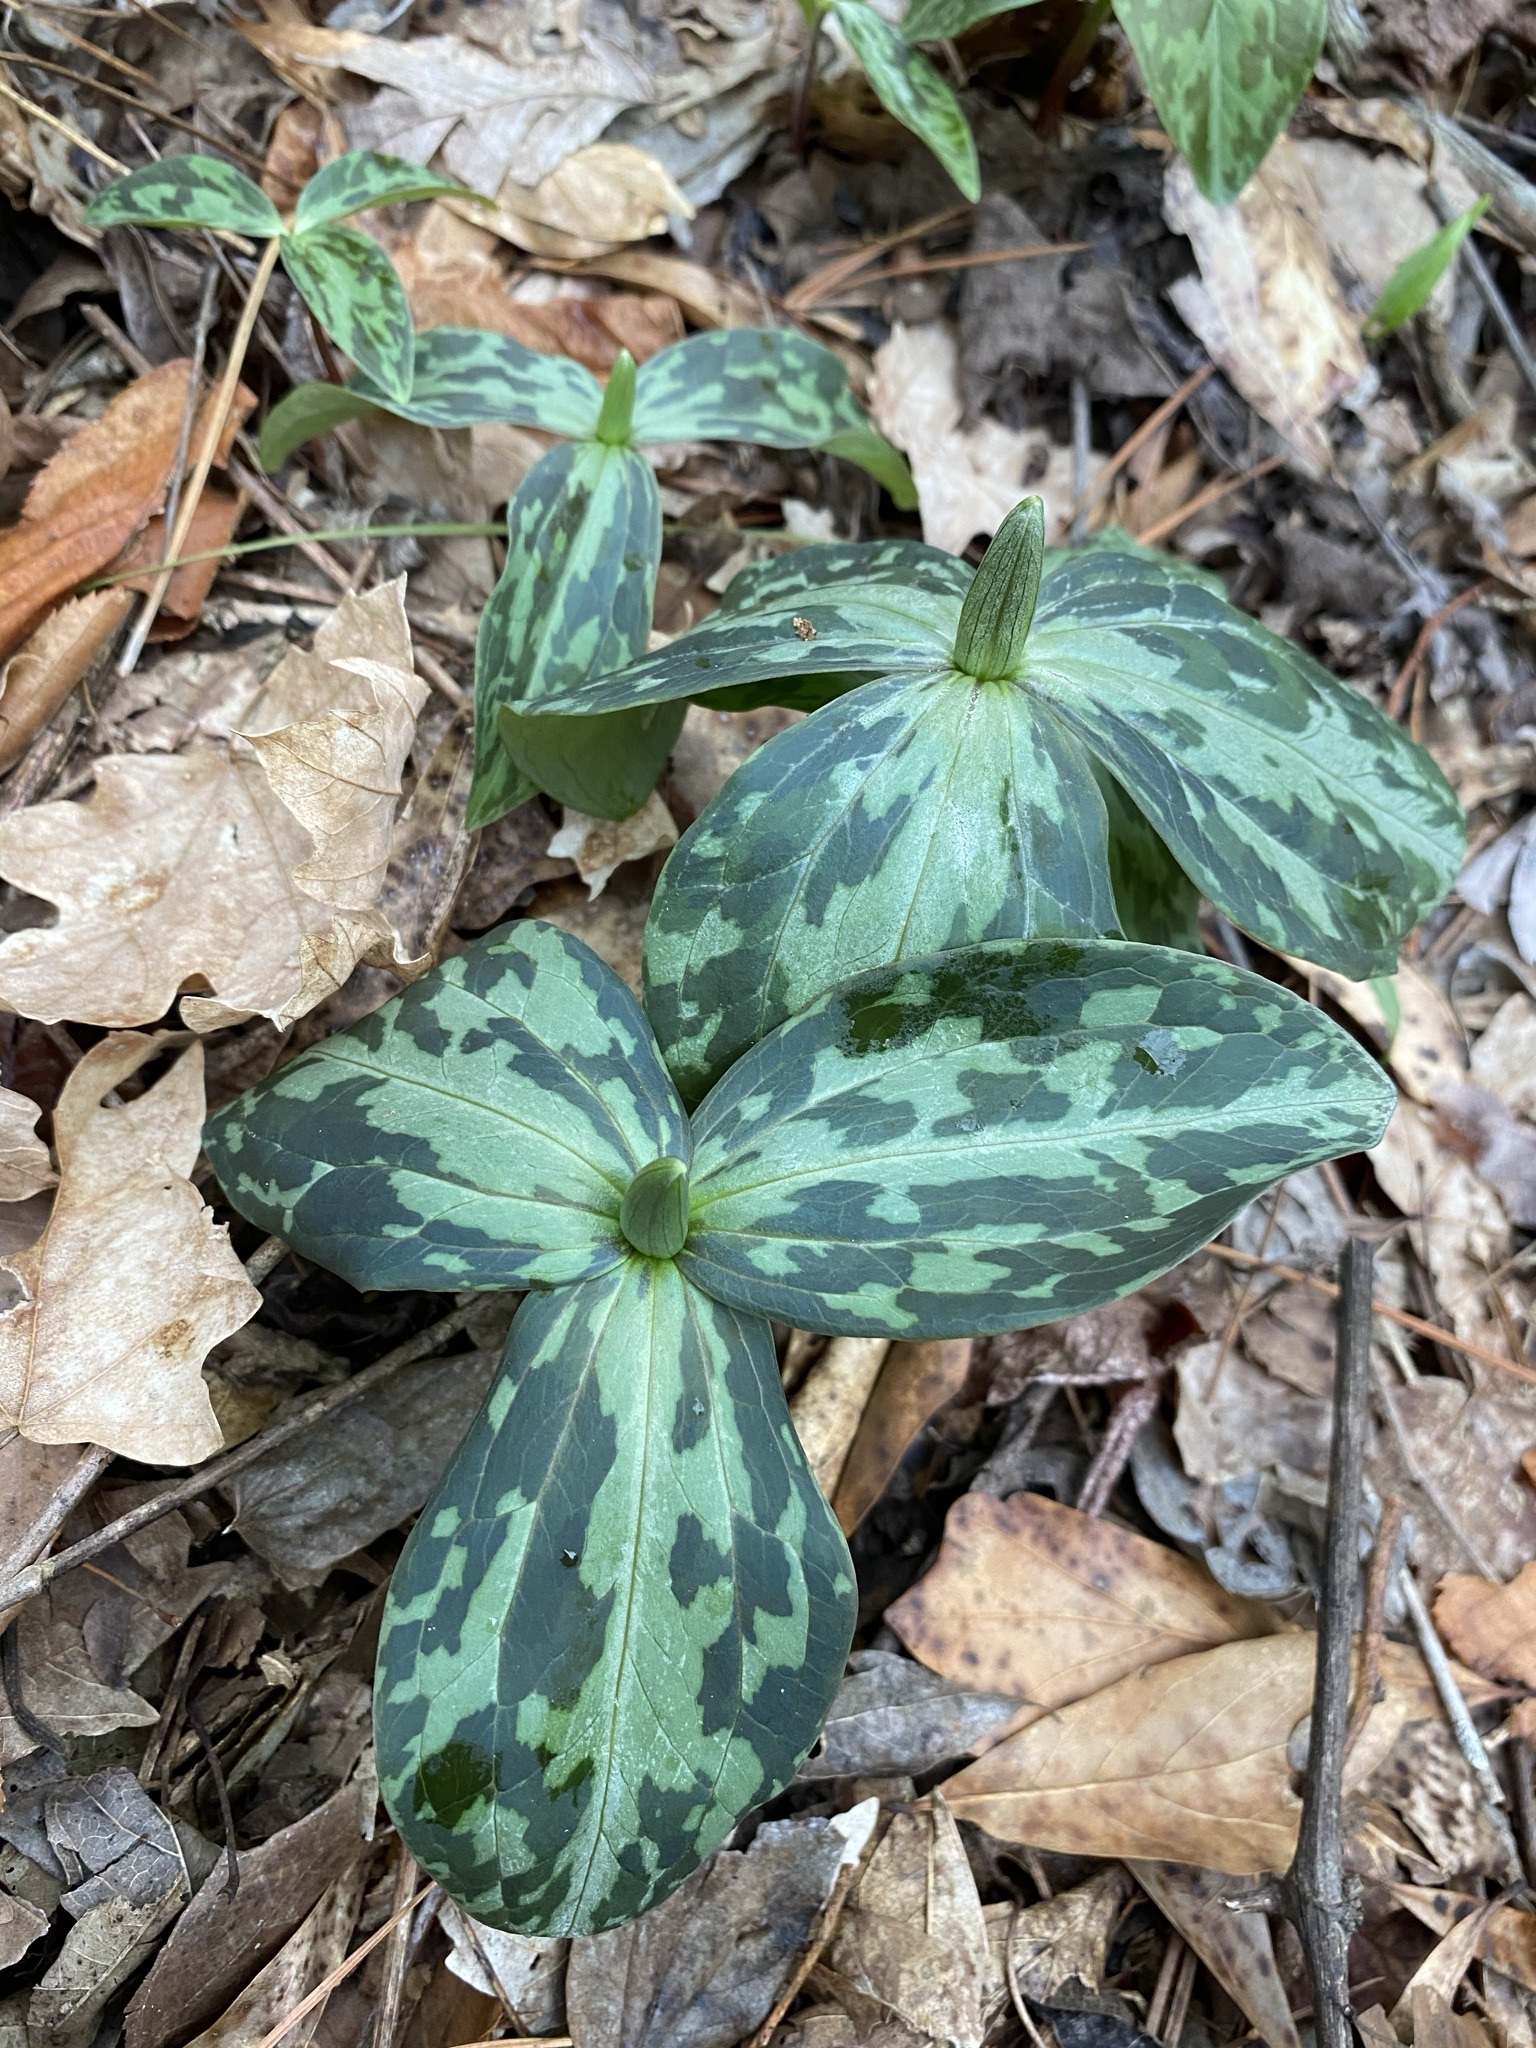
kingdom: Plantae
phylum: Tracheophyta
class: Liliopsida
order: Liliales
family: Melanthiaceae
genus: Trillium
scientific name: Trillium gracile
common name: Graceful trillium
